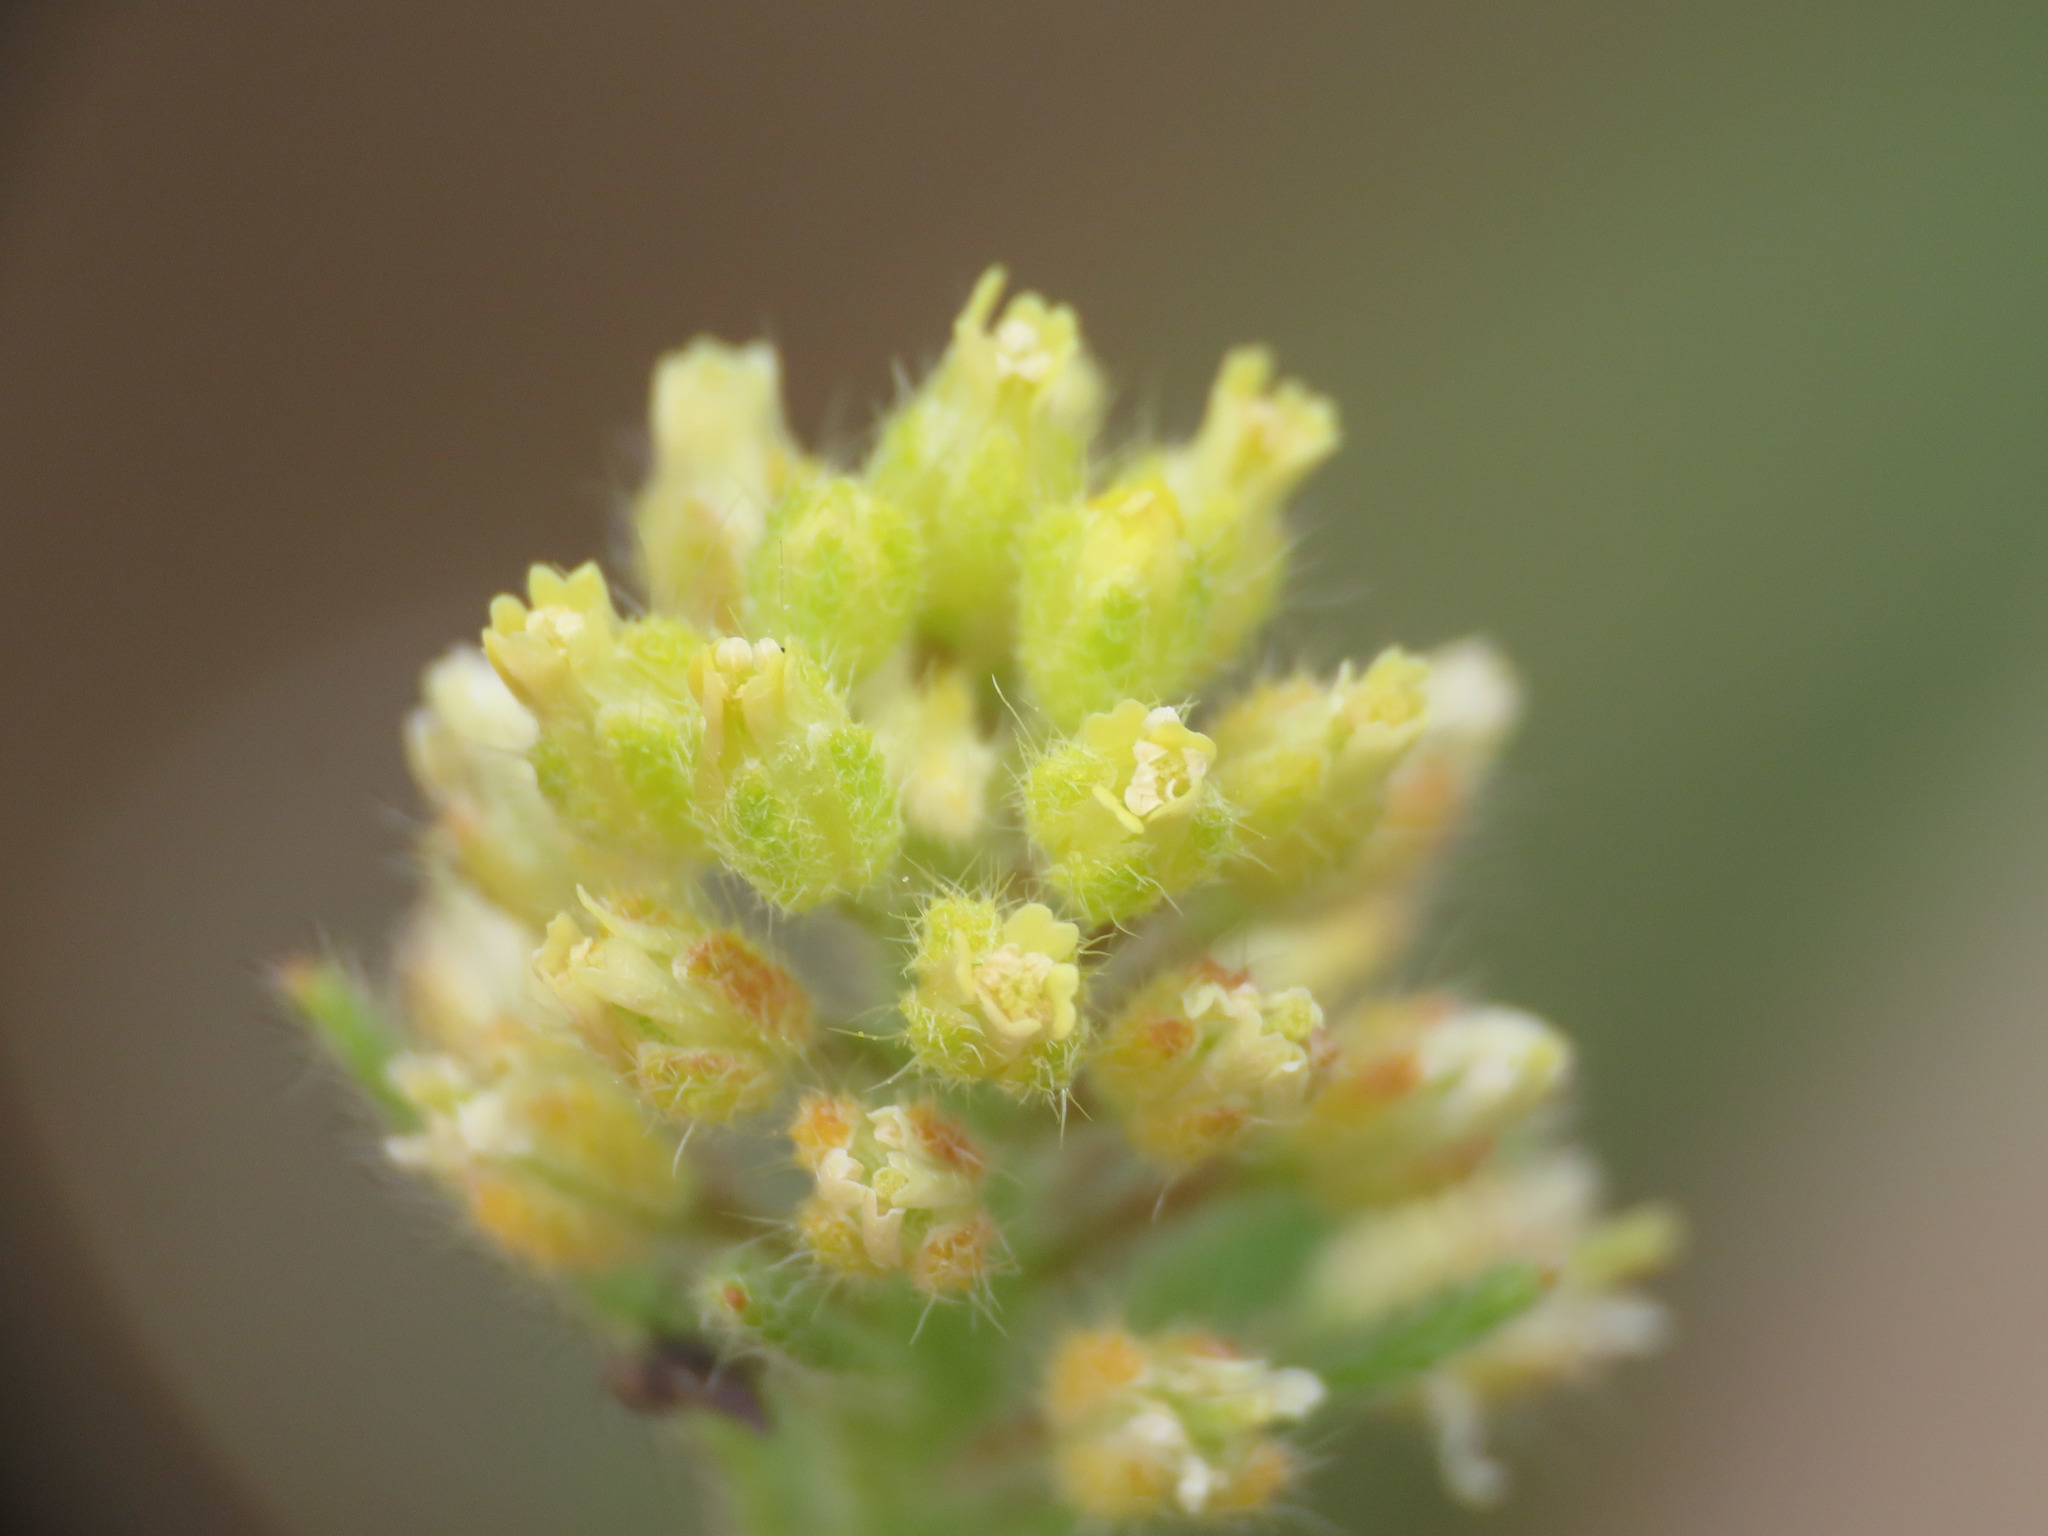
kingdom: Plantae
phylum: Tracheophyta
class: Magnoliopsida
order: Brassicales
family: Brassicaceae
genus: Alyssum
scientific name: Alyssum alyssoides
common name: Small alison
